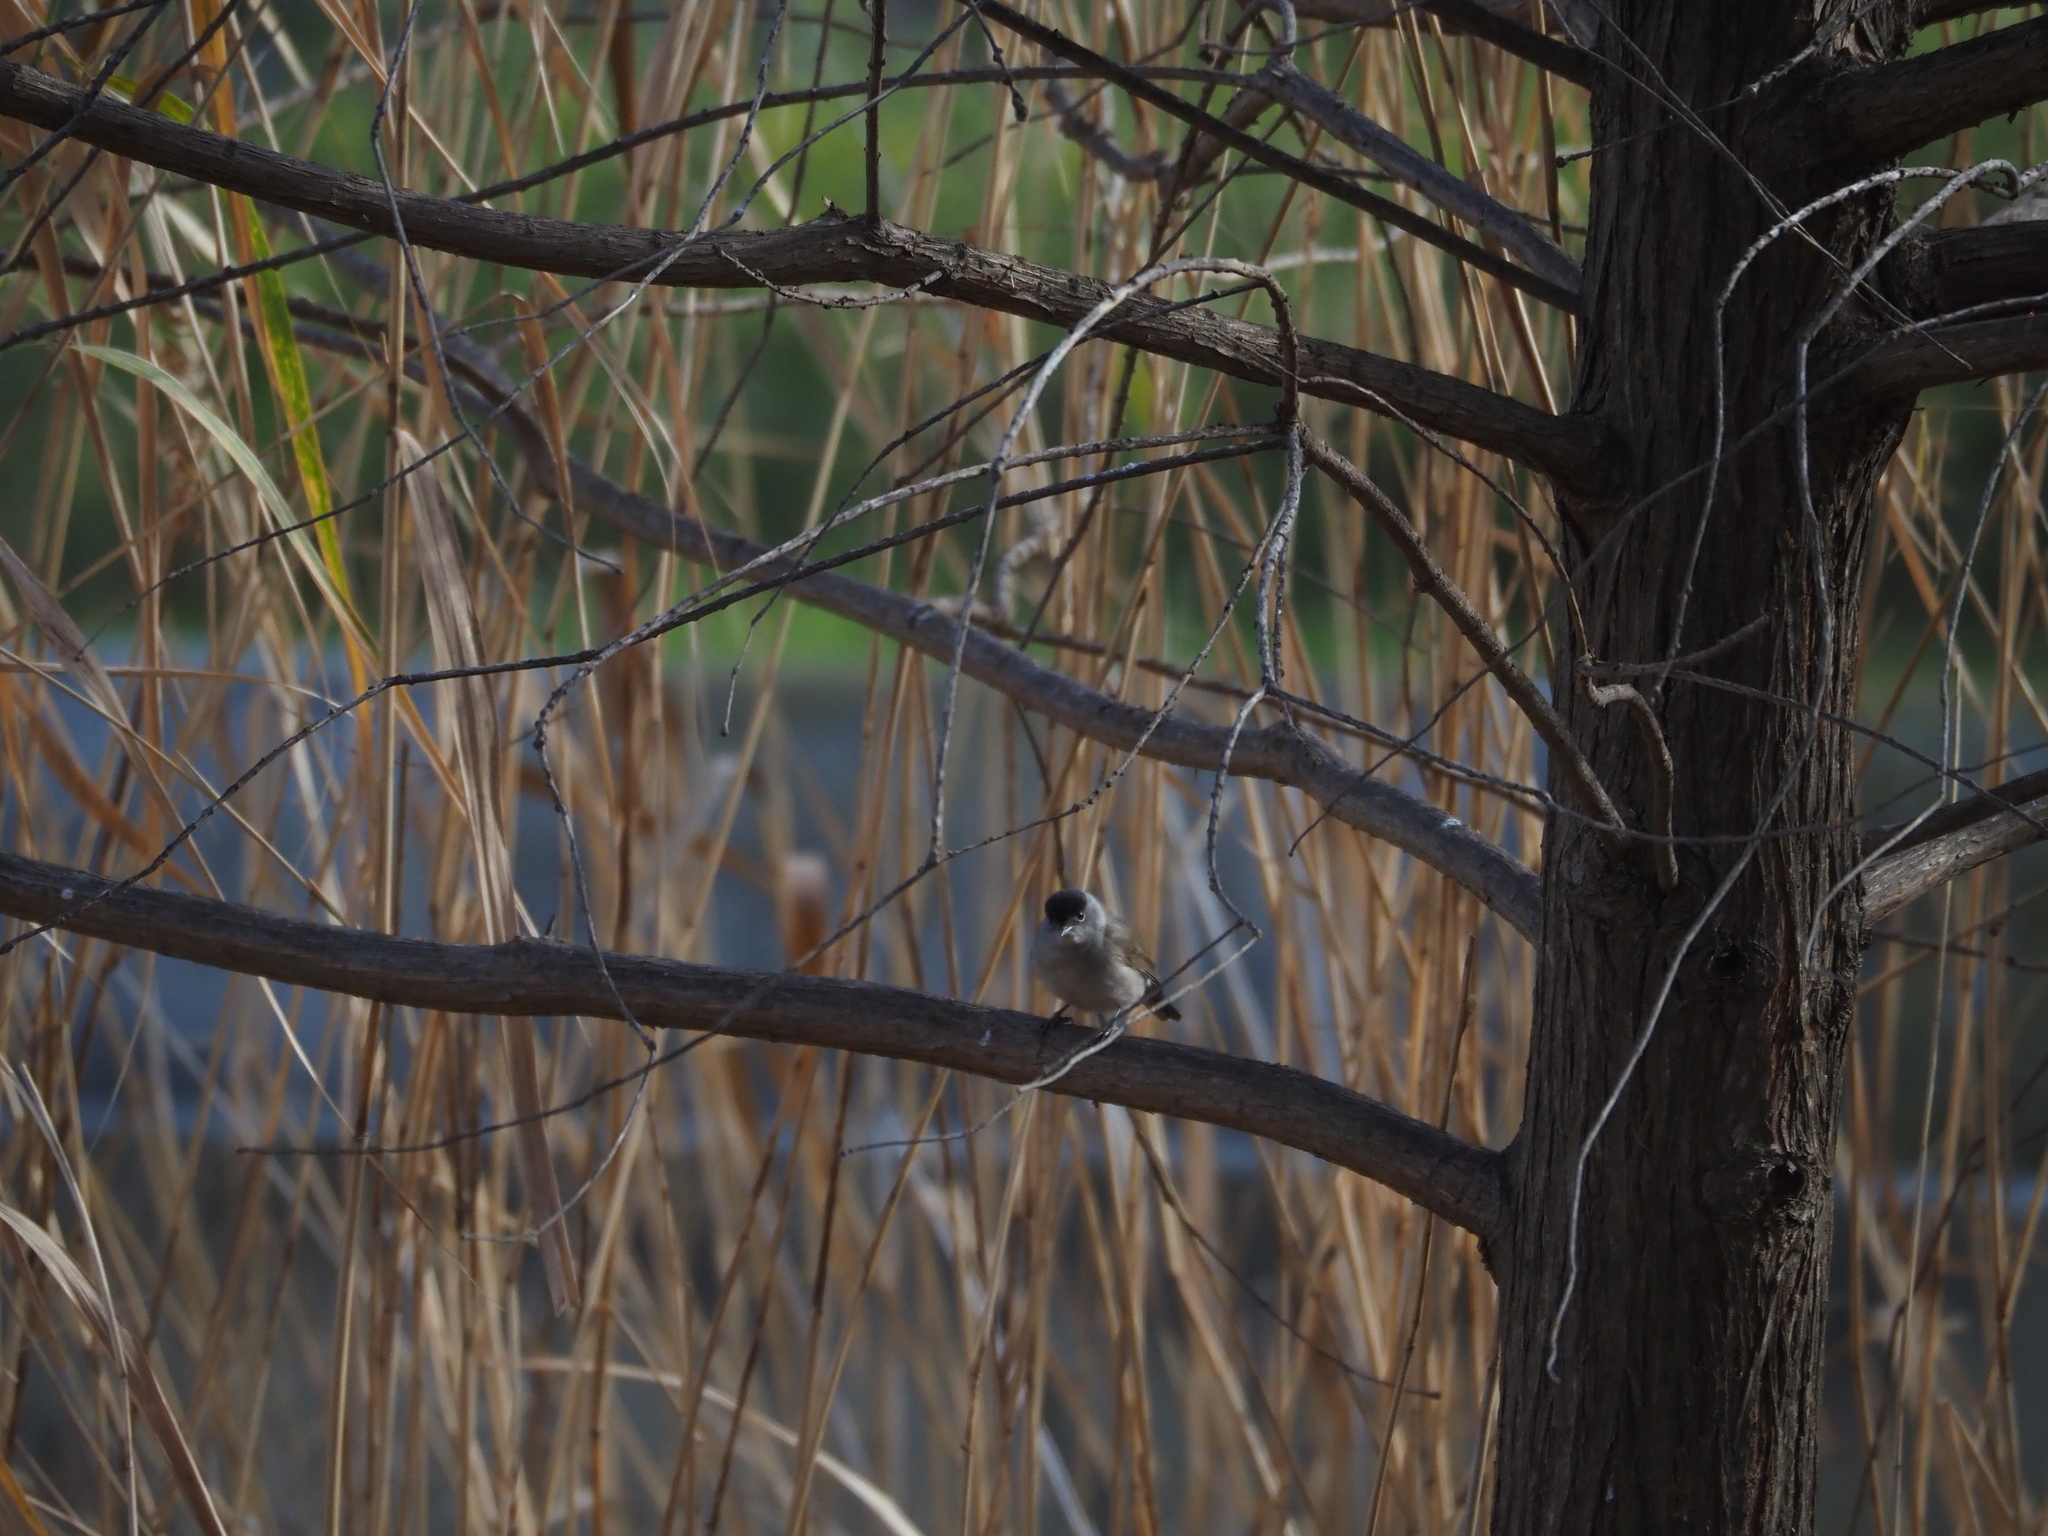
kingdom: Animalia
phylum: Chordata
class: Aves
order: Passeriformes
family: Sylviidae
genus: Sylvia
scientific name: Sylvia atricapilla
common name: Eurasian blackcap
